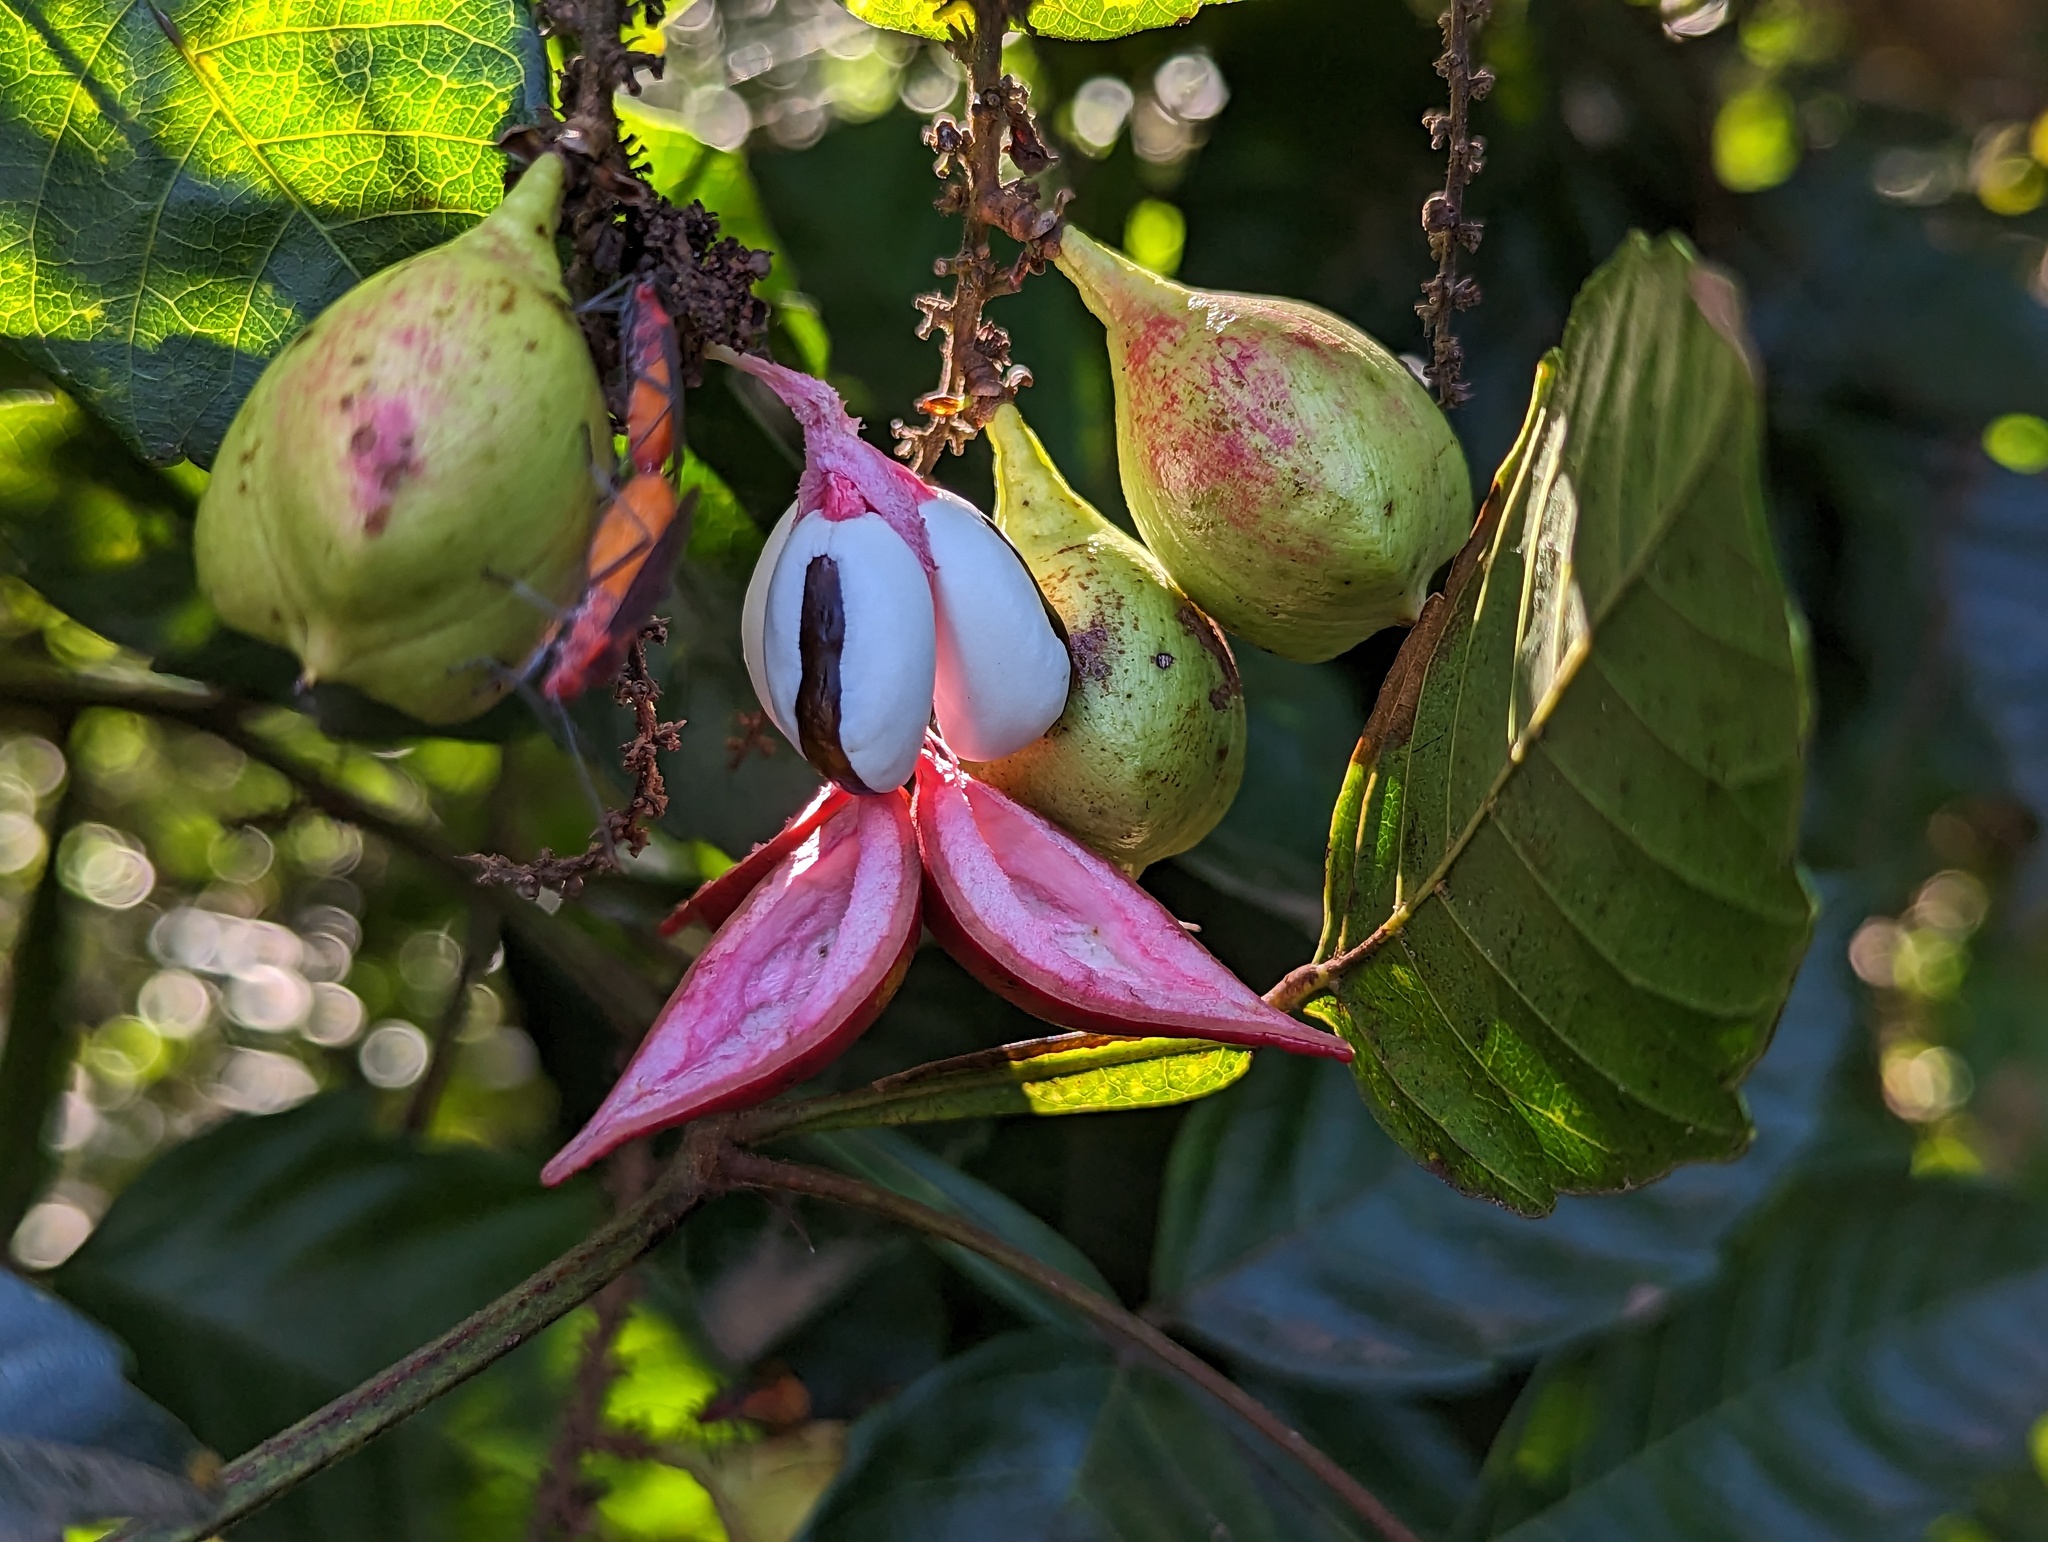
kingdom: Plantae
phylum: Tracheophyta
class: Magnoliopsida
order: Sapindales
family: Sapindaceae
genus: Paullinia
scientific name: Paullinia pinnata
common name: Barbasco
